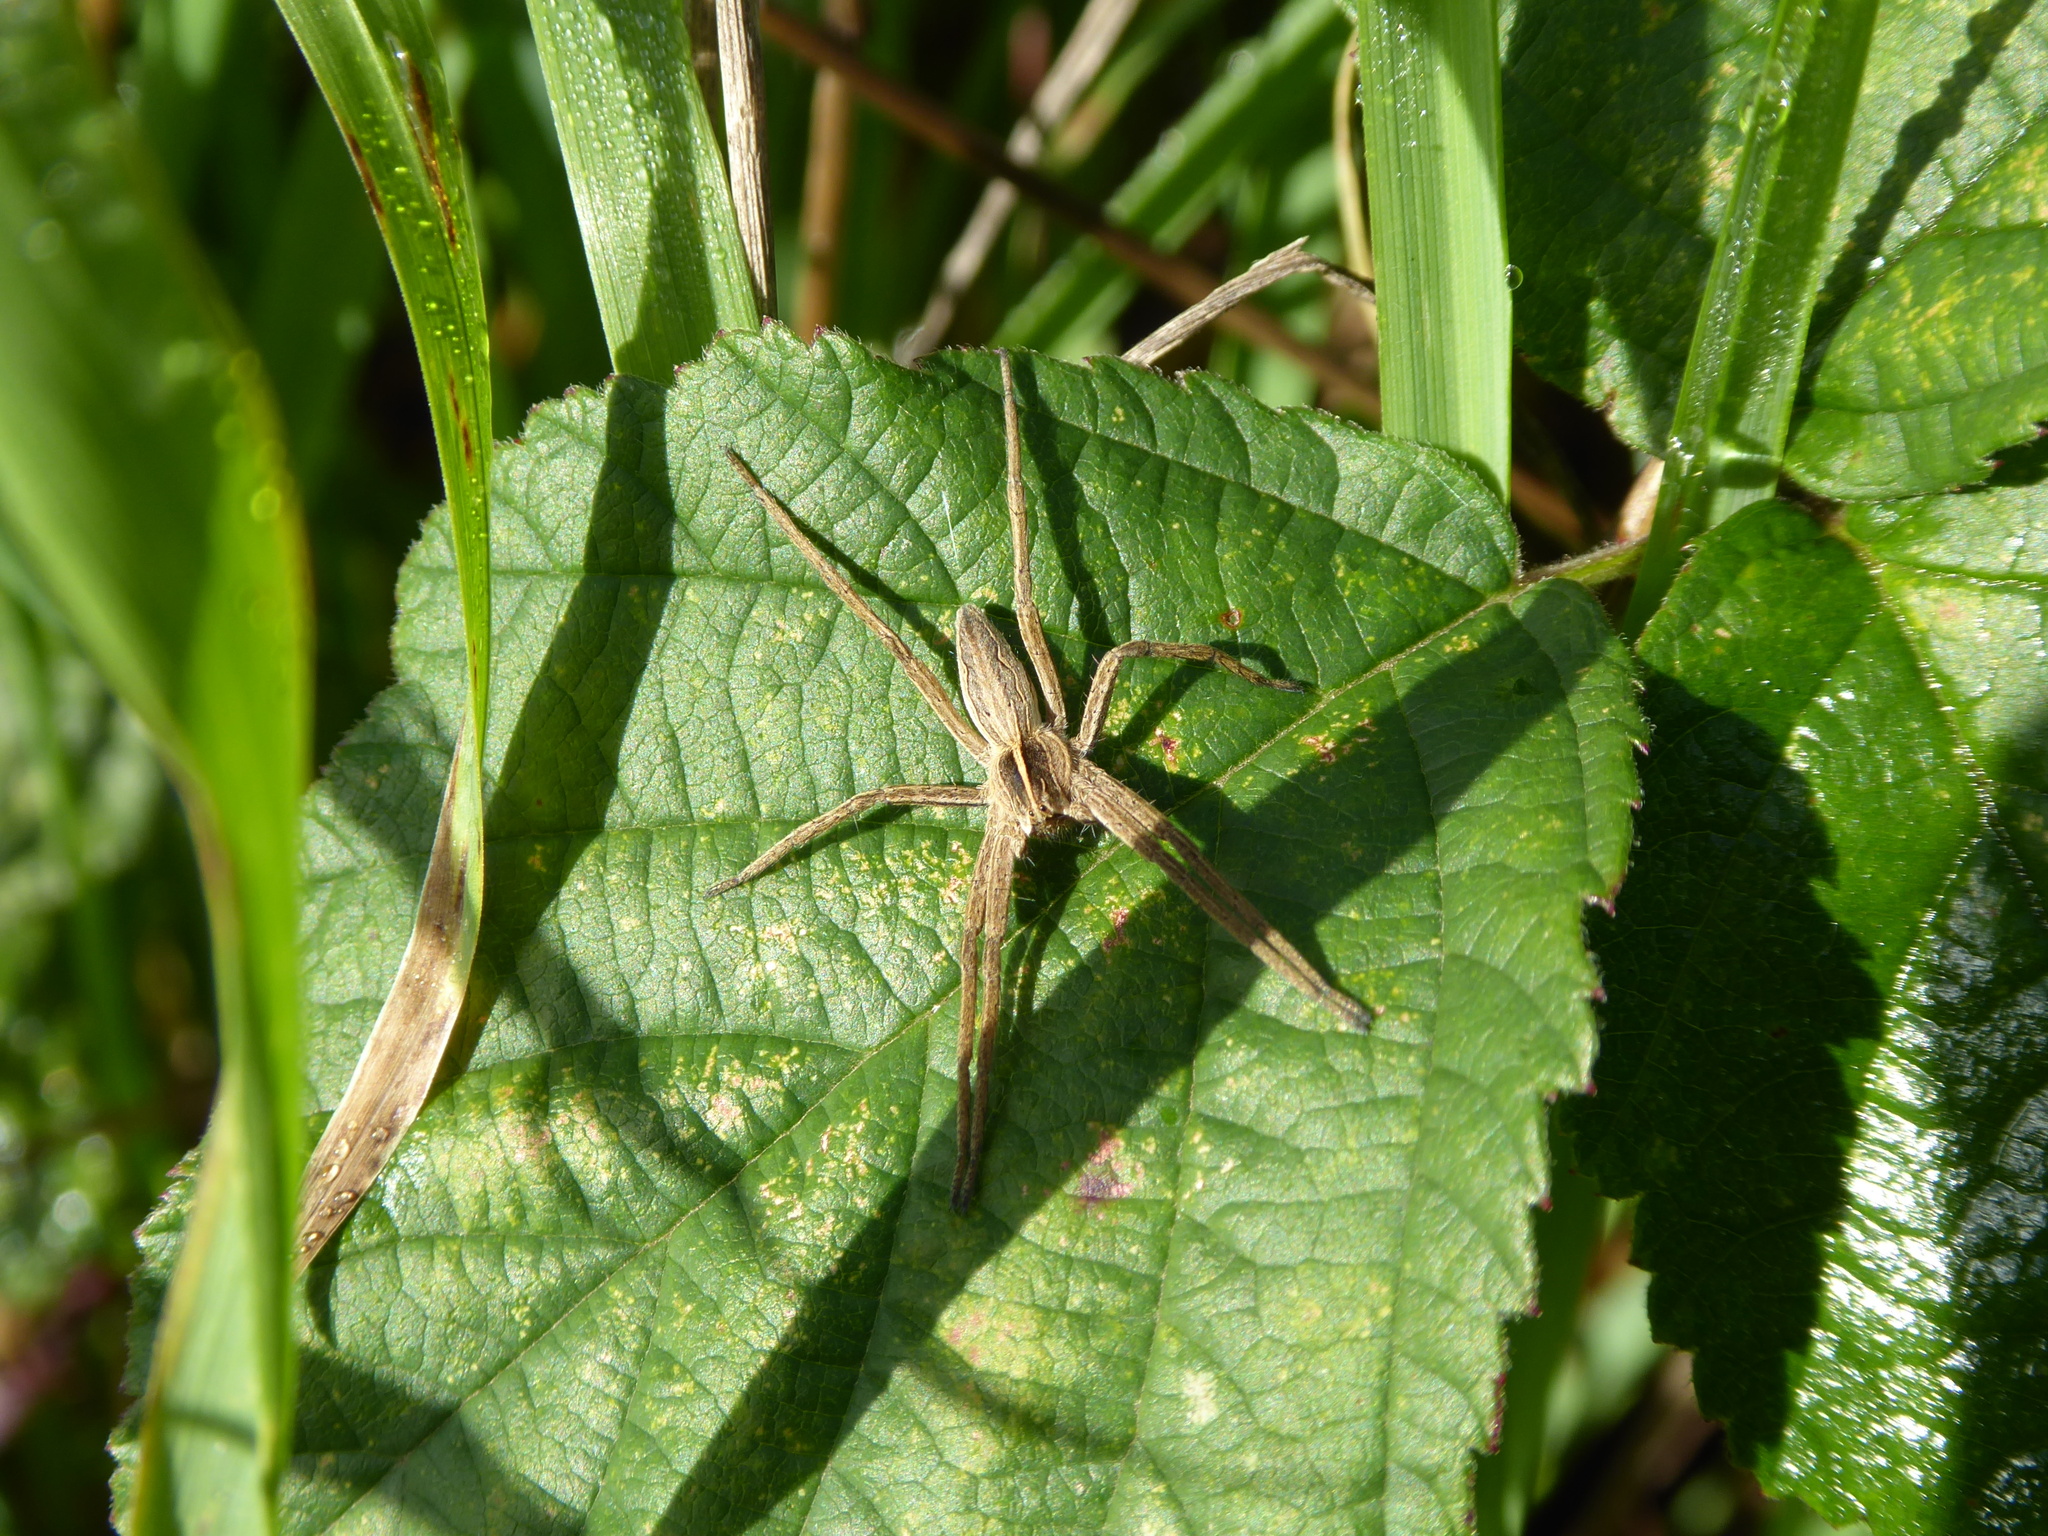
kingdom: Animalia
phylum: Arthropoda
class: Arachnida
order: Araneae
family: Pisauridae
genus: Pisaura
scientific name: Pisaura mirabilis
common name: Tent spider
